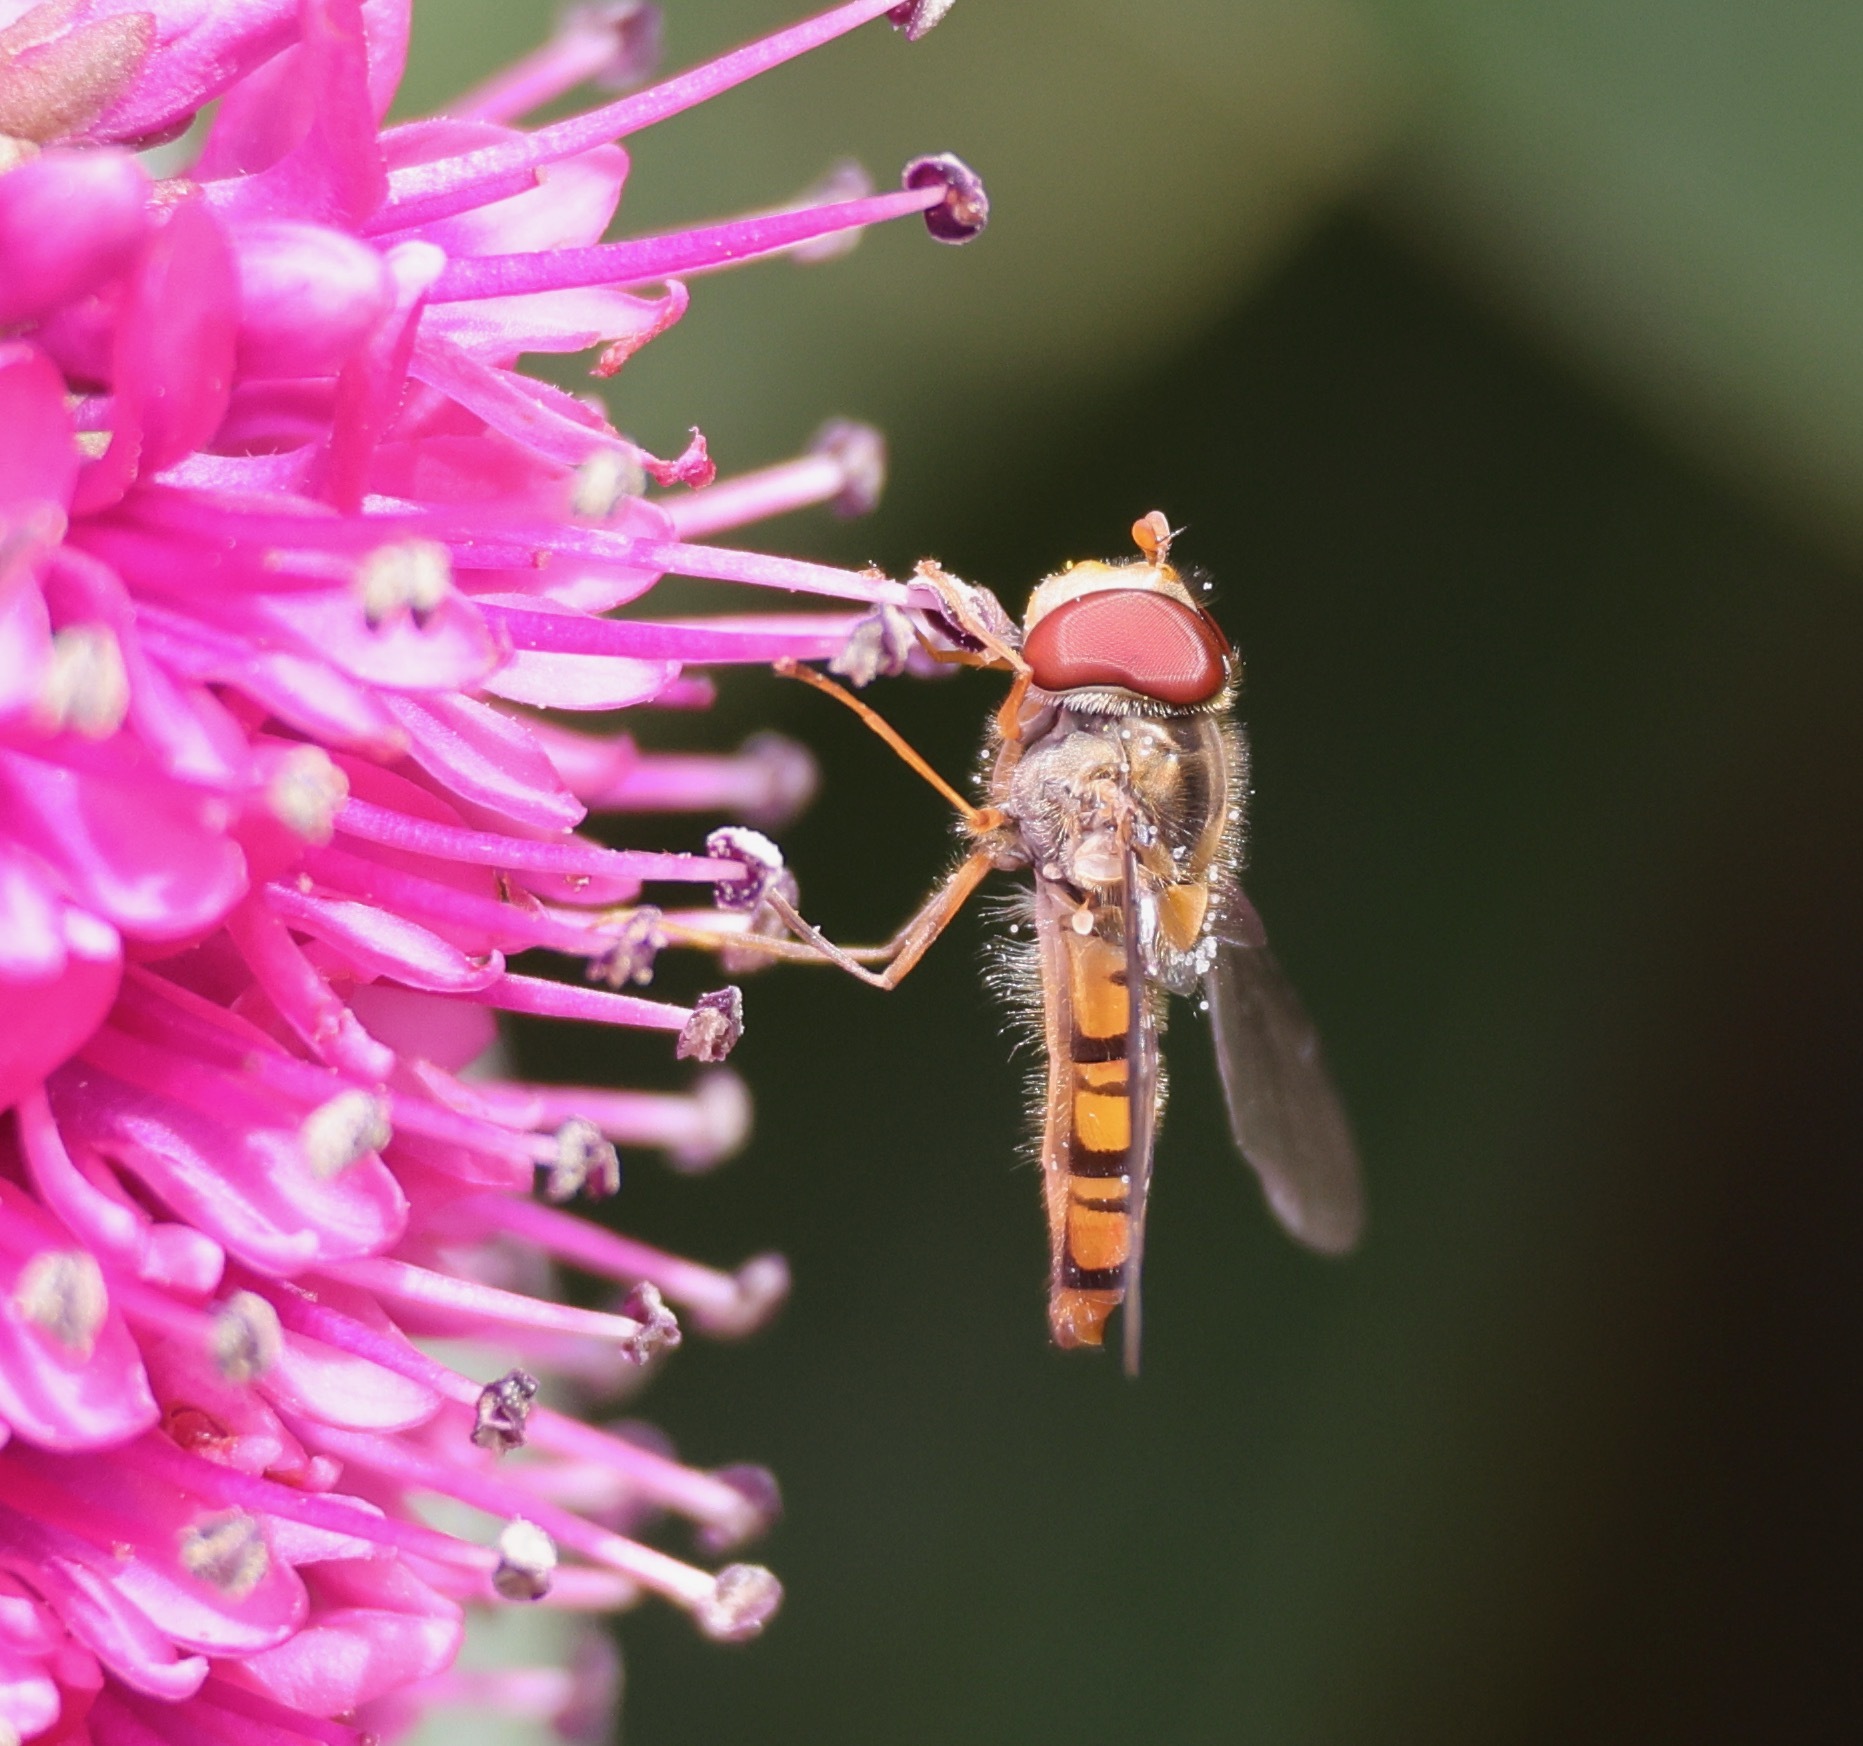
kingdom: Animalia
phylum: Arthropoda
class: Insecta
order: Diptera
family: Syrphidae
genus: Episyrphus
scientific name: Episyrphus balteatus
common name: Marmalade hoverfly
